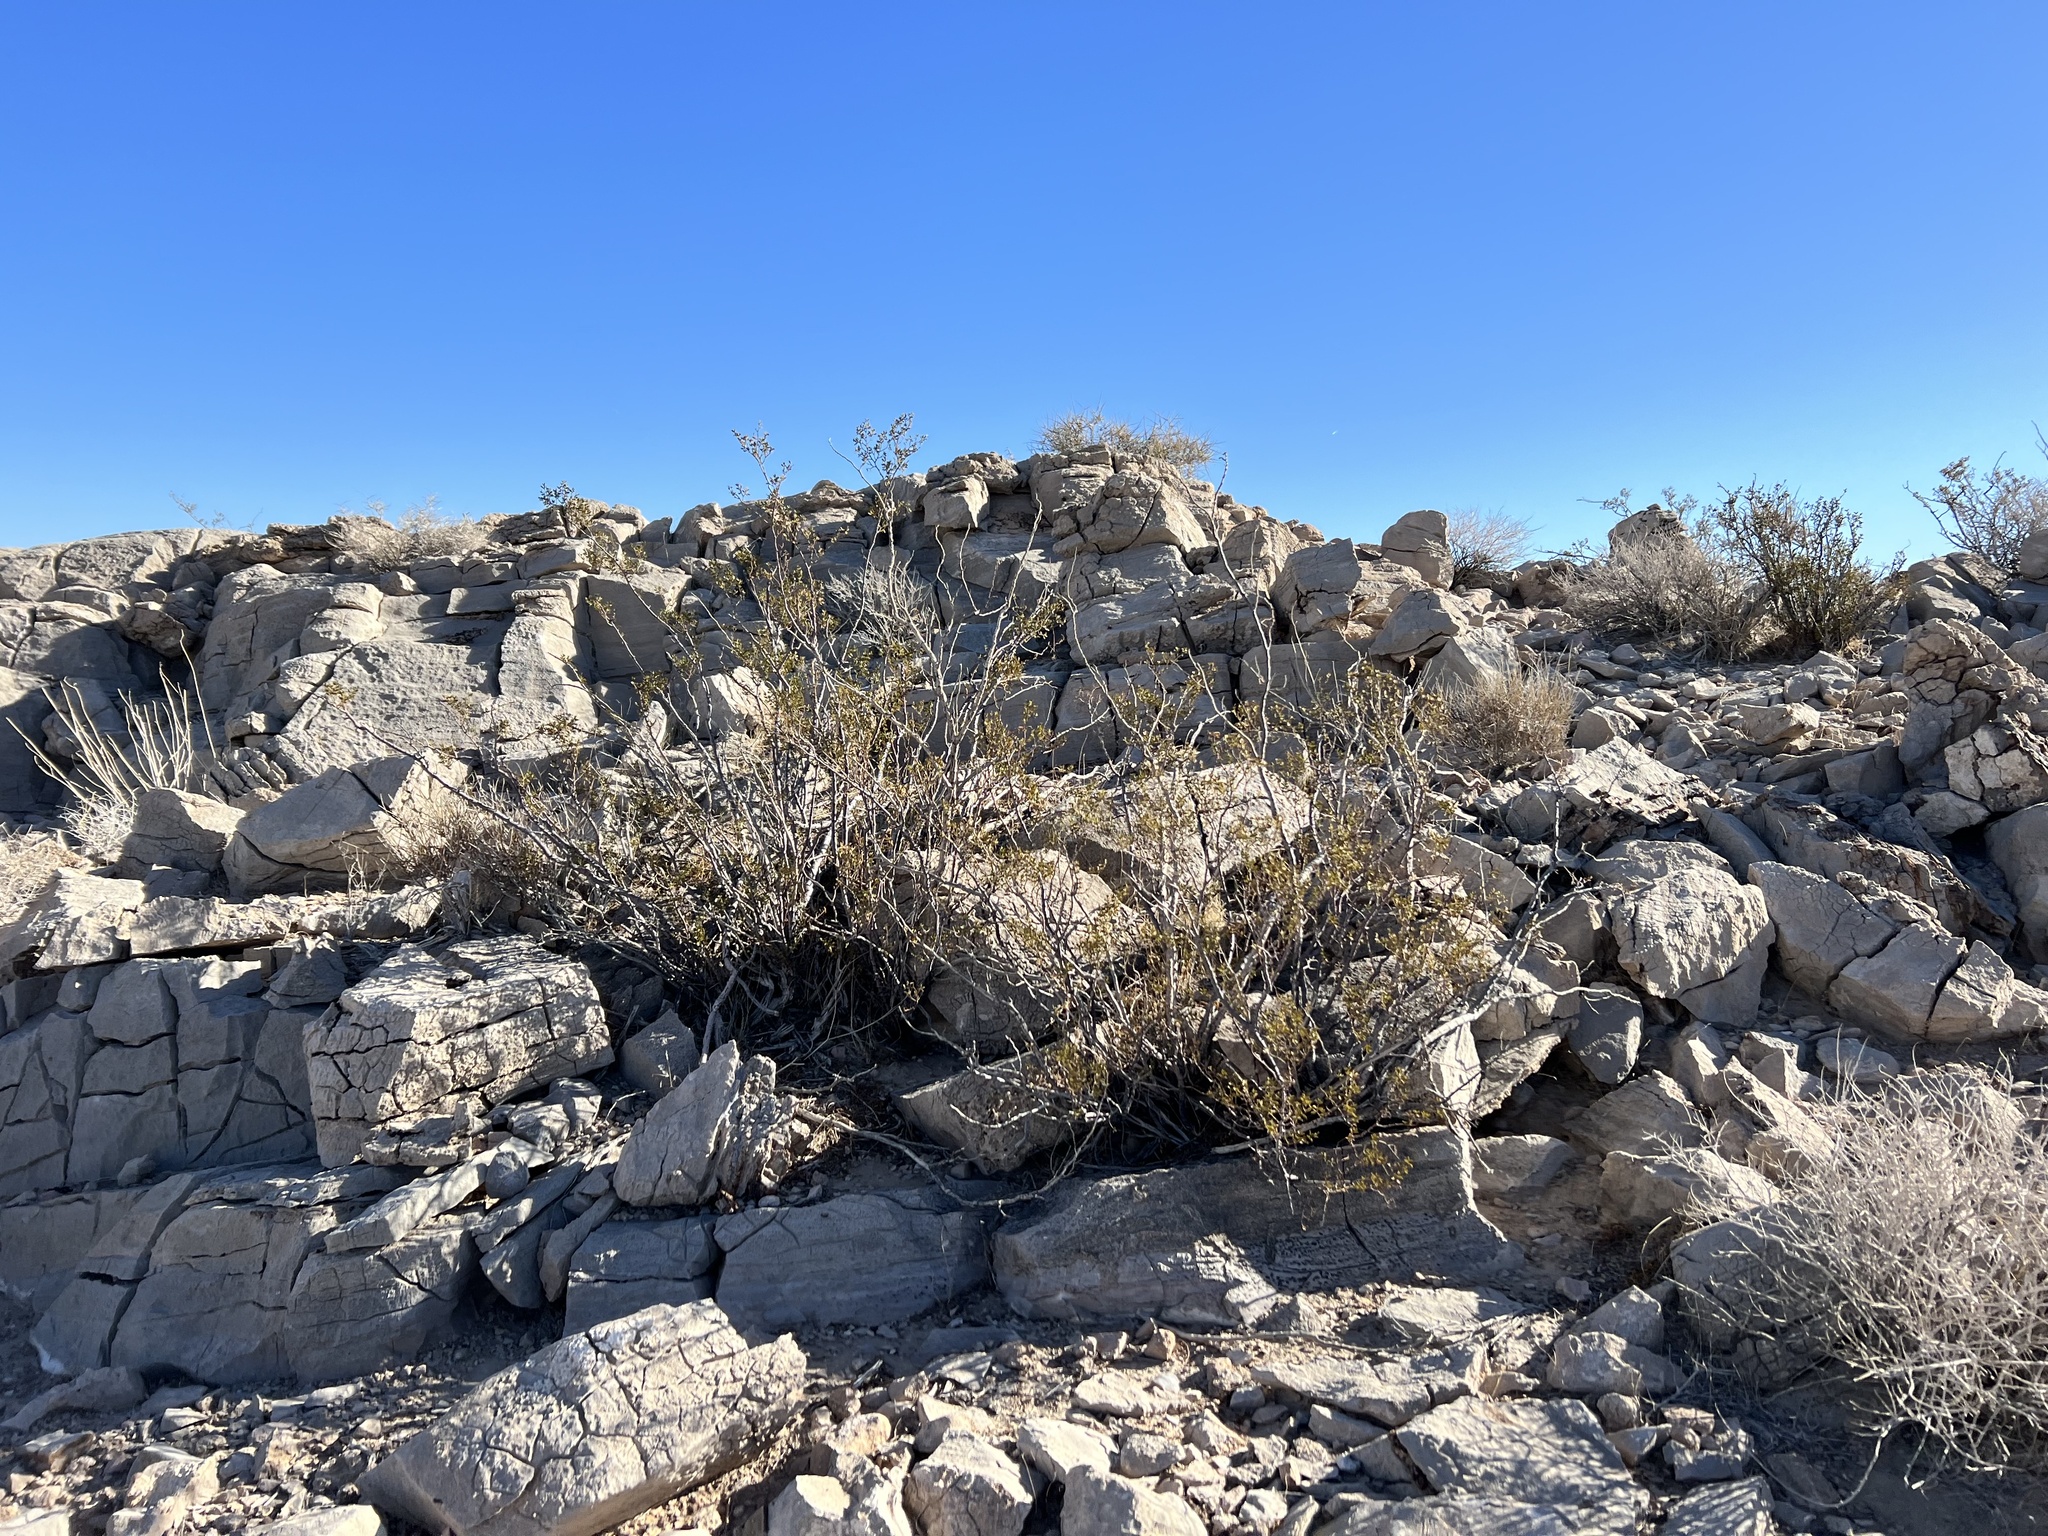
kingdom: Plantae
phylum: Tracheophyta
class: Magnoliopsida
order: Zygophyllales
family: Zygophyllaceae
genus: Larrea
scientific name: Larrea tridentata
